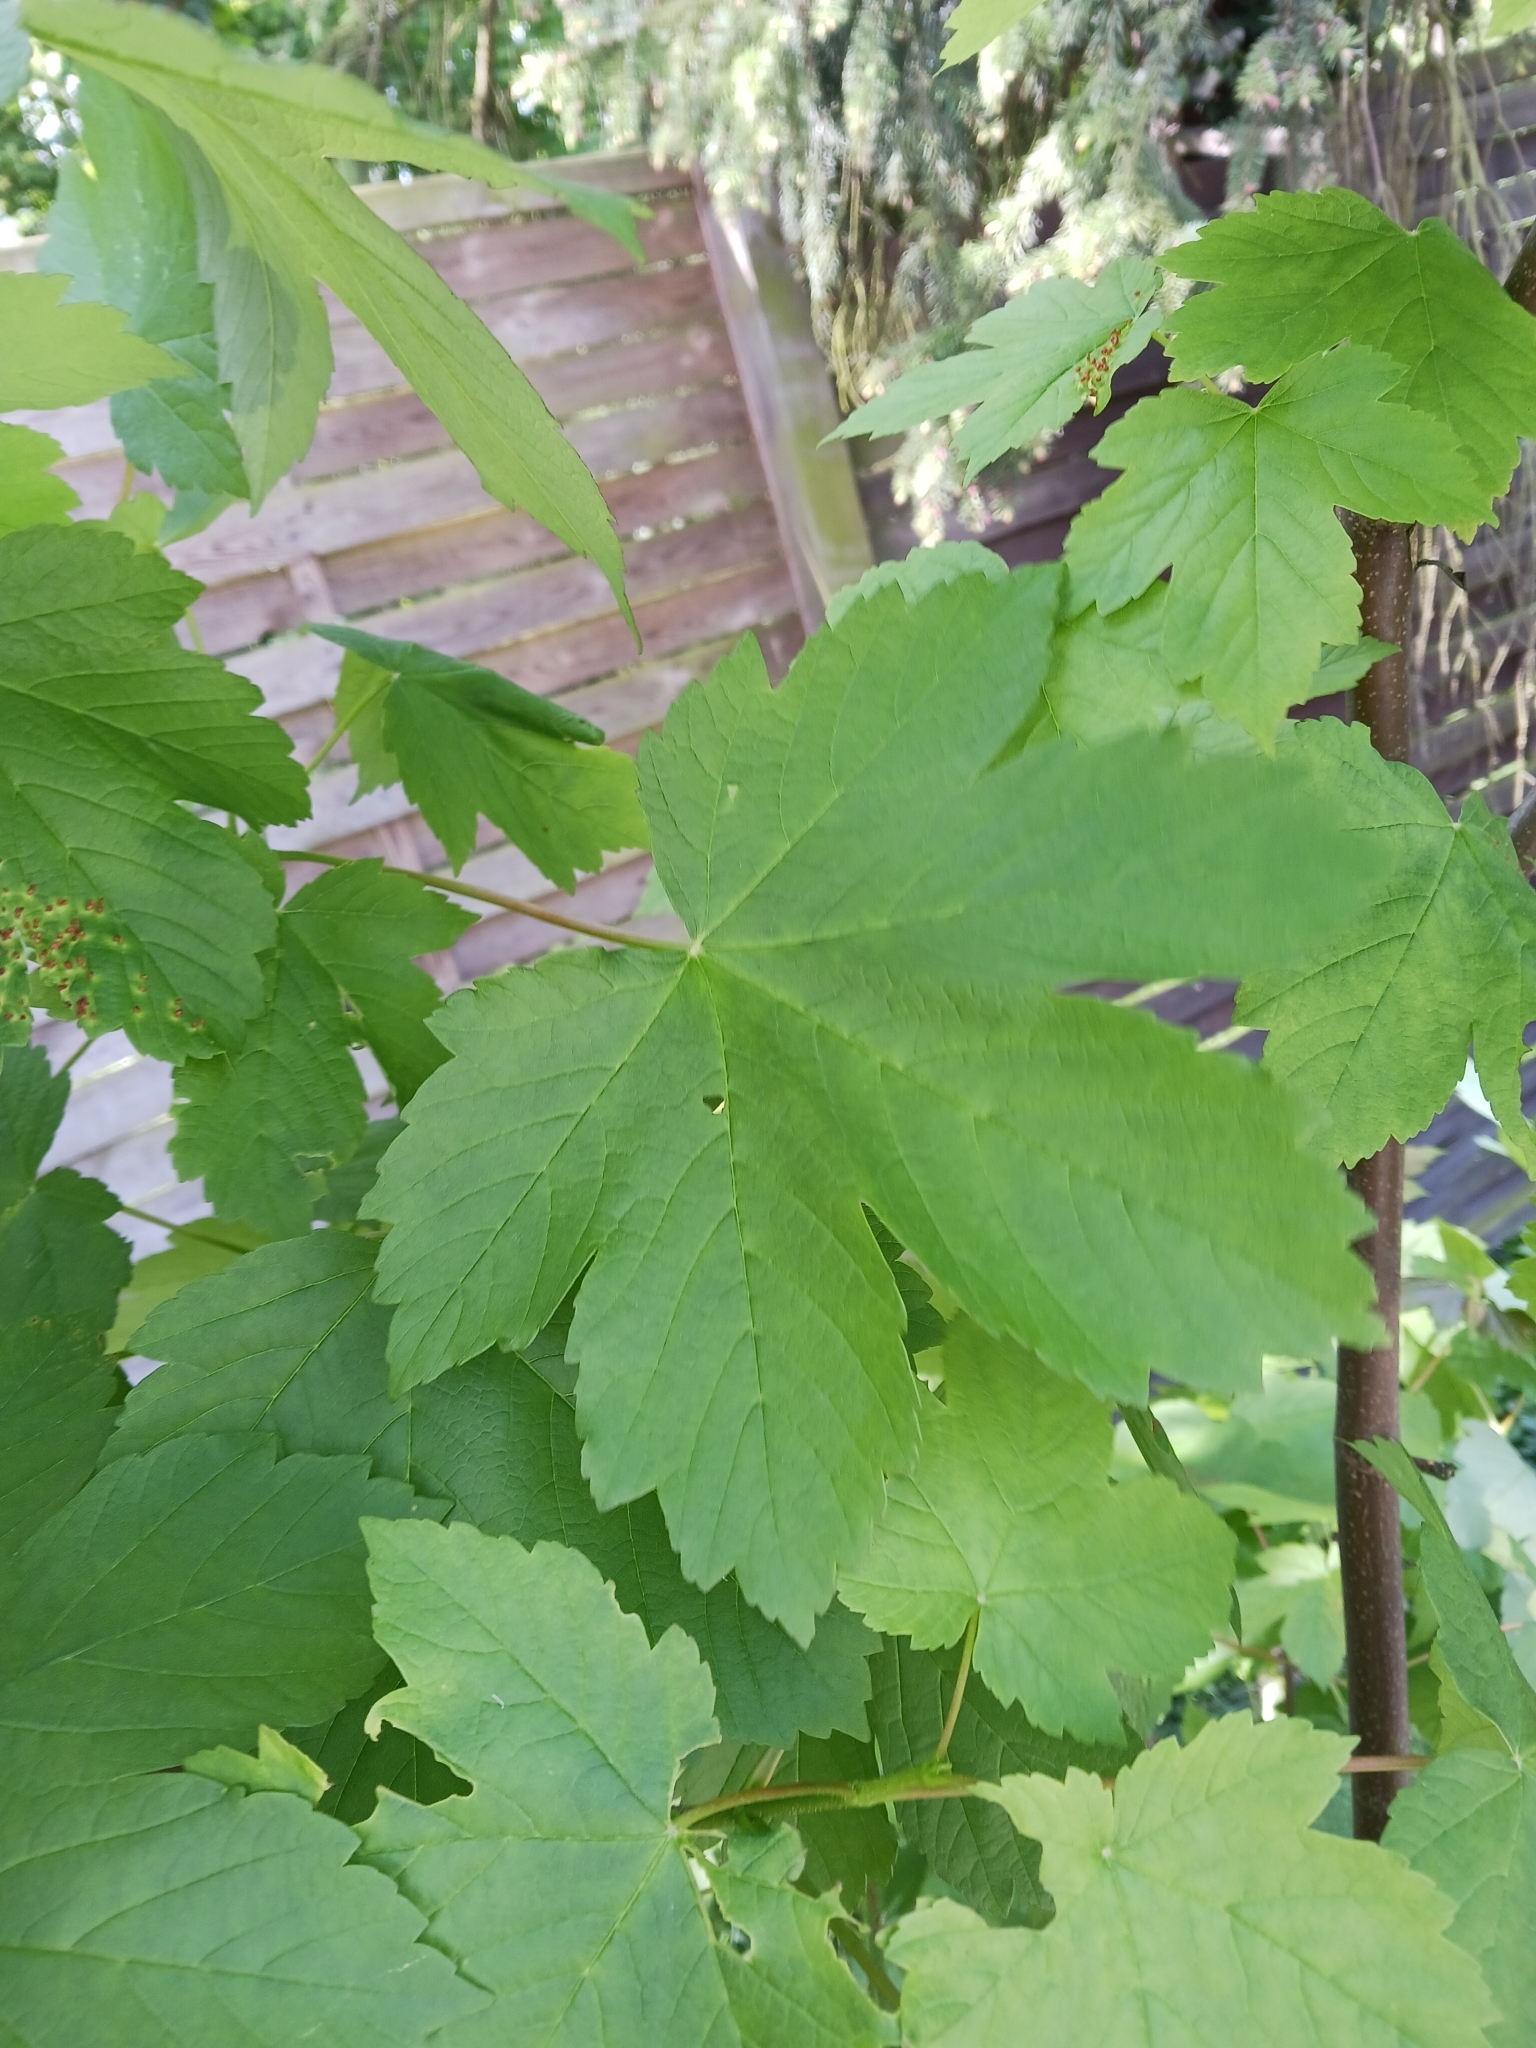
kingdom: Plantae
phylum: Tracheophyta
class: Magnoliopsida
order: Sapindales
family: Sapindaceae
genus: Acer
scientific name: Acer pseudoplatanus
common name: Sycamore
